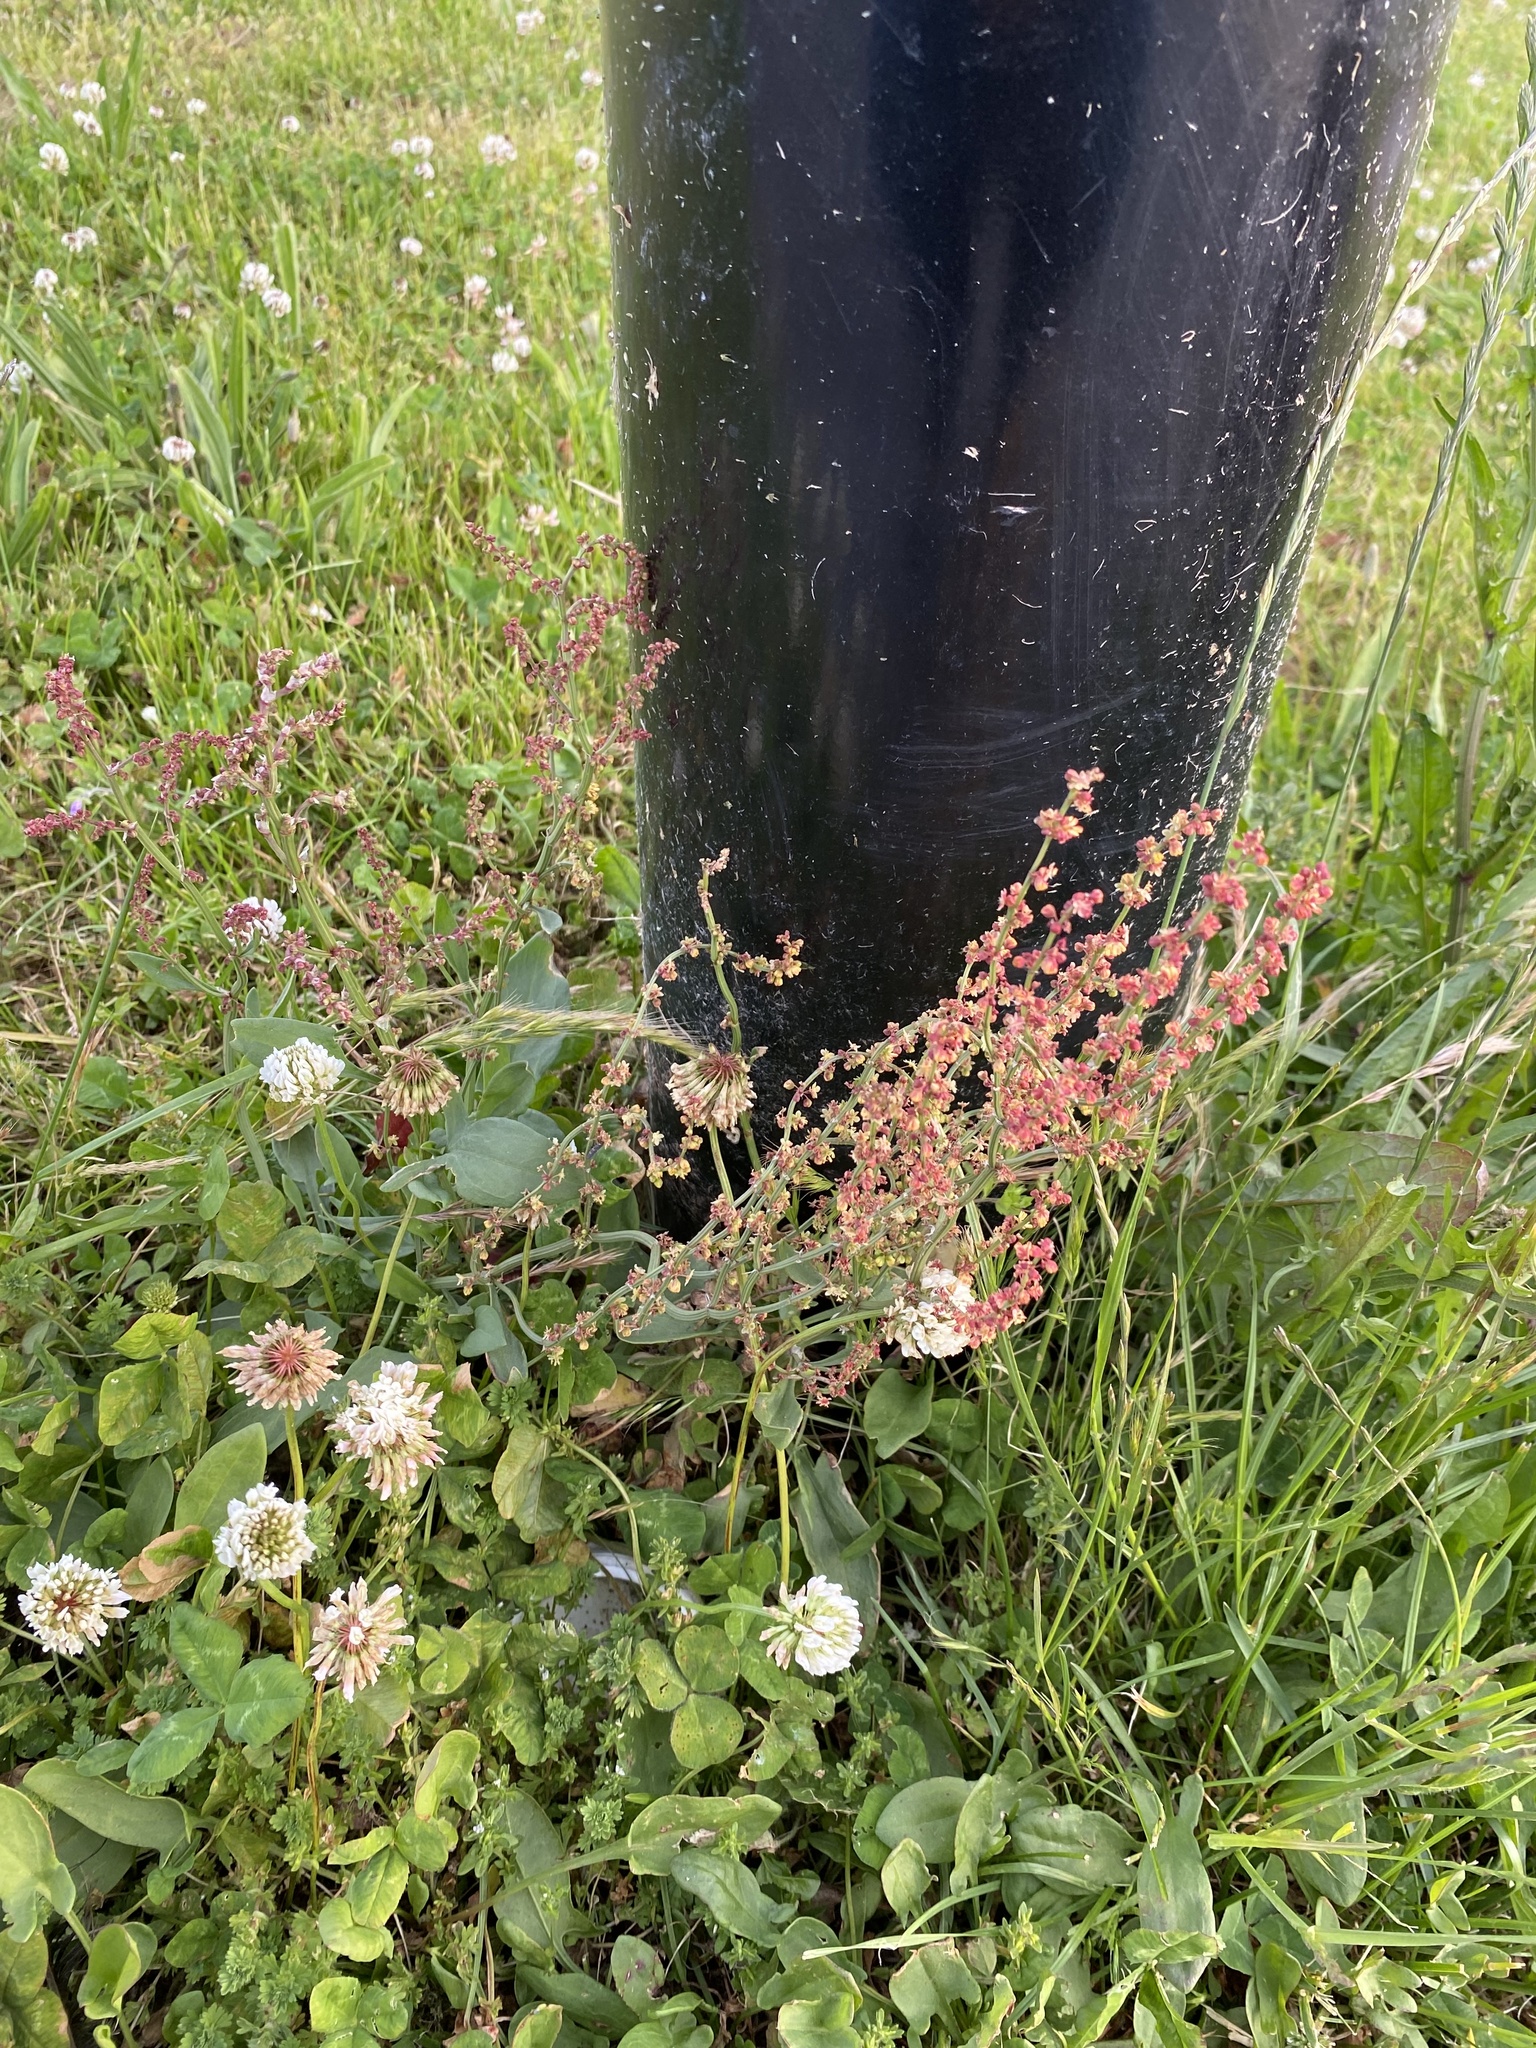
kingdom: Plantae
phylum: Tracheophyta
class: Magnoliopsida
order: Caryophyllales
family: Polygonaceae
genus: Rumex
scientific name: Rumex acetosella
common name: Common sheep sorrel
